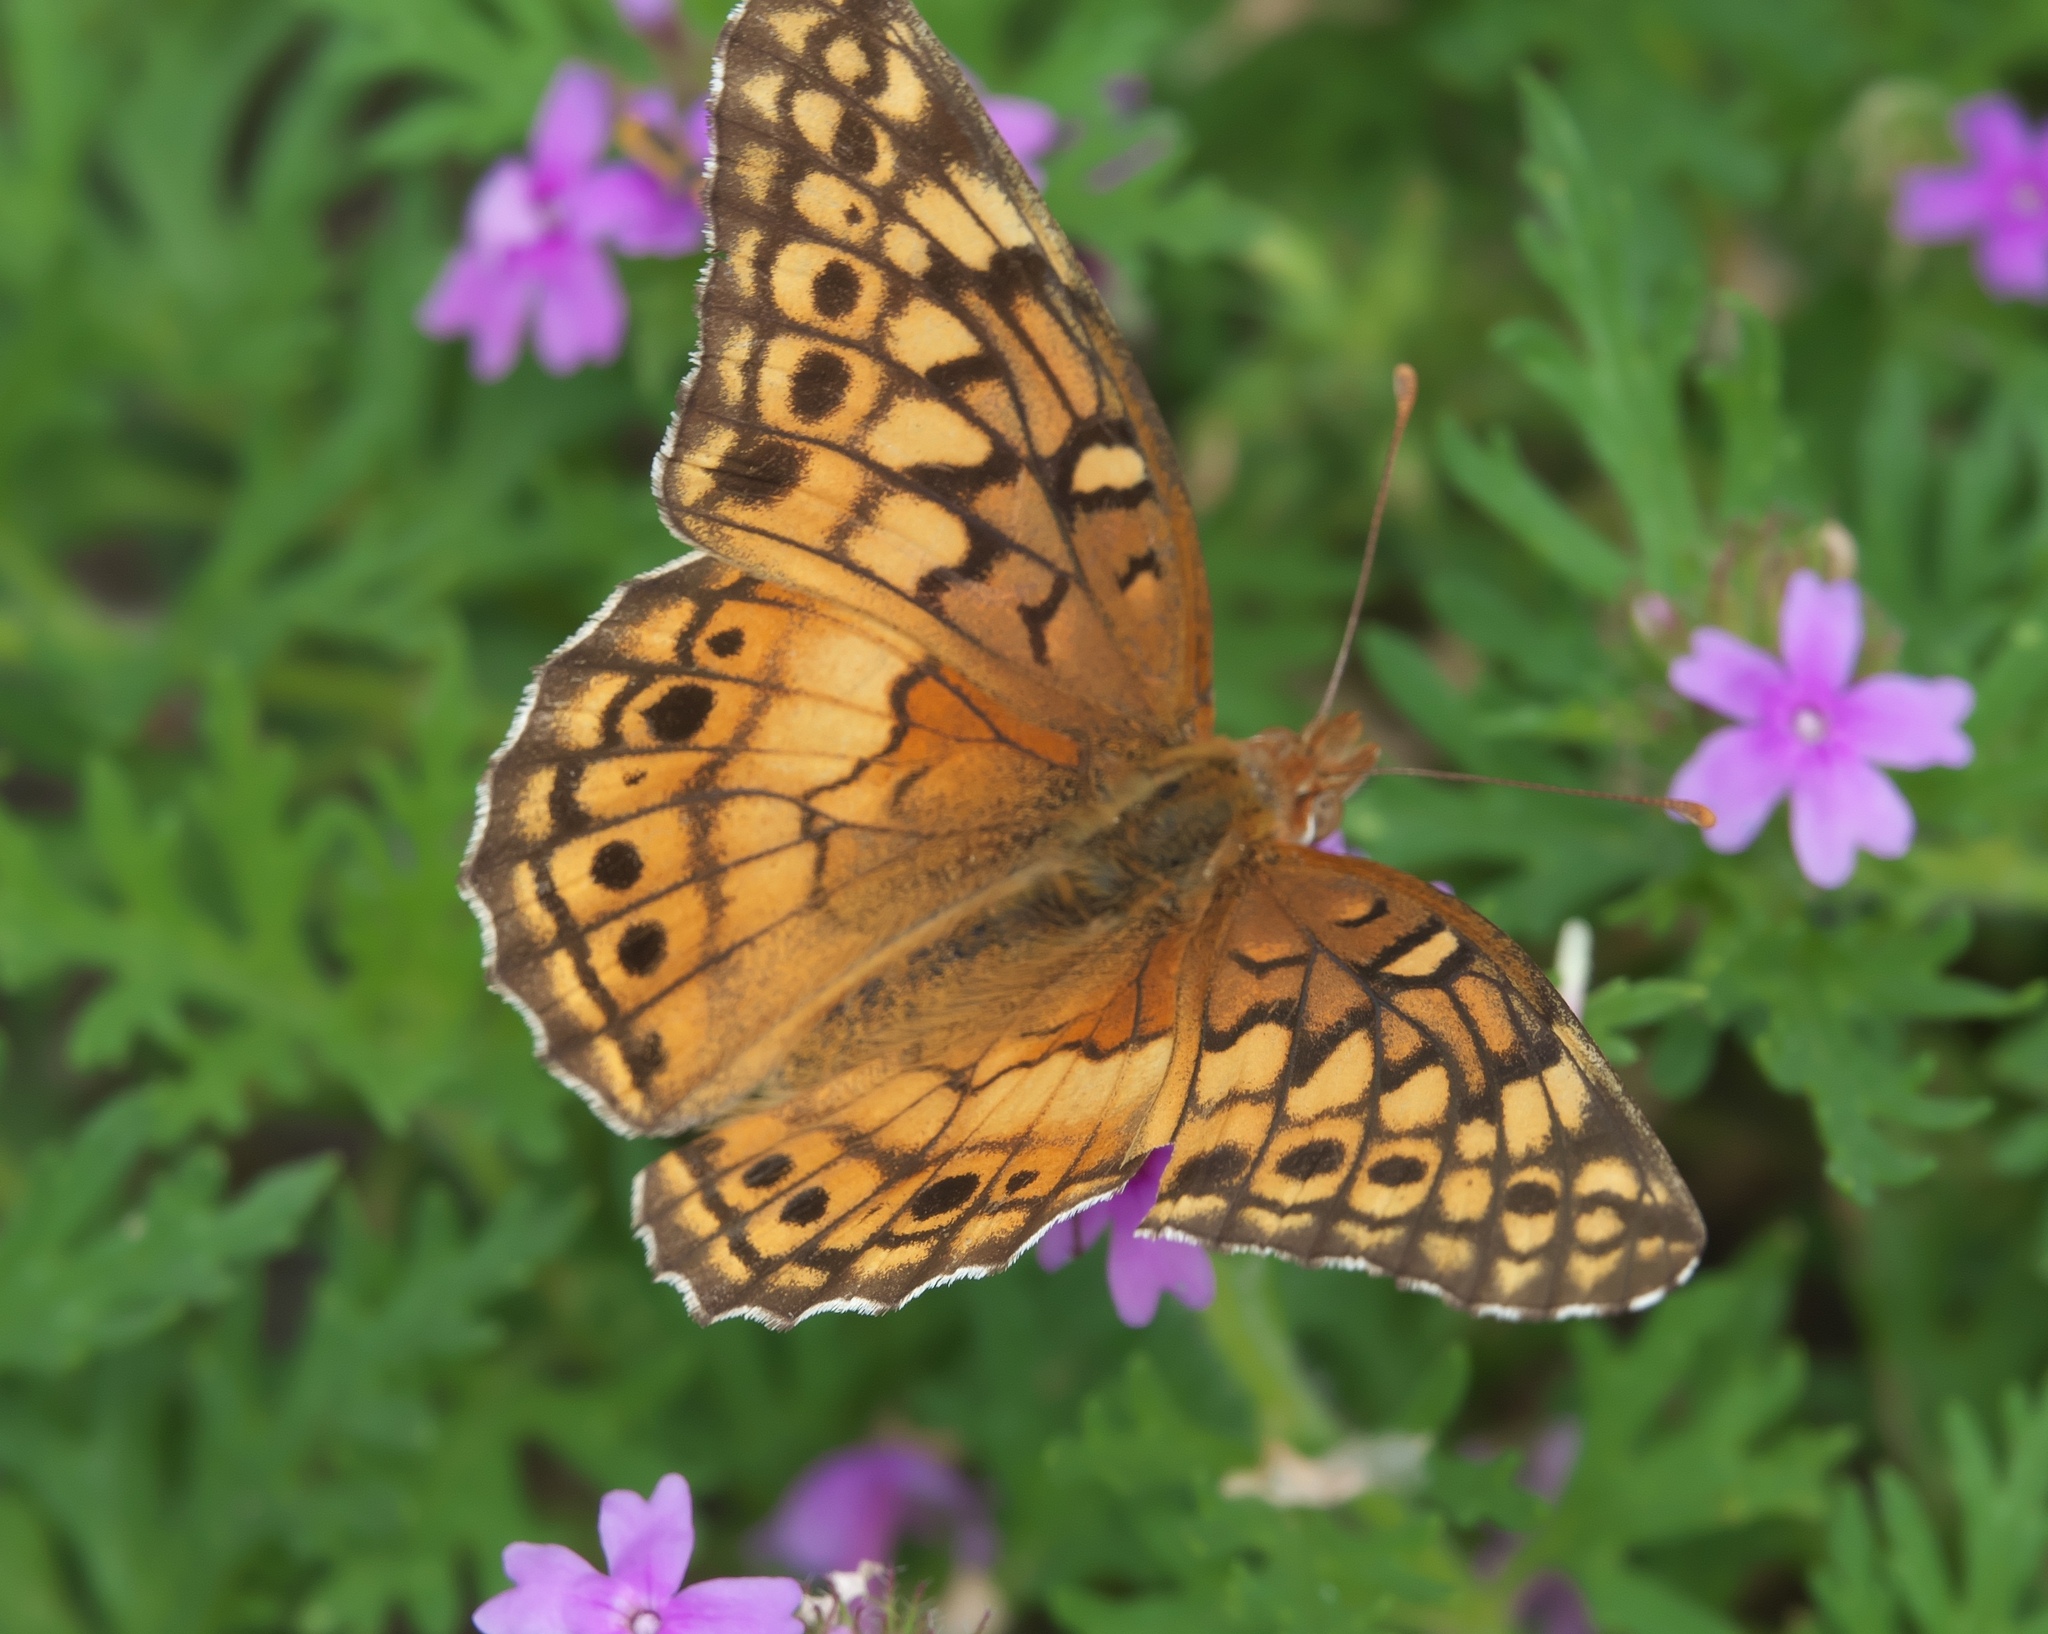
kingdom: Animalia
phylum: Arthropoda
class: Insecta
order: Lepidoptera
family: Nymphalidae
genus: Euptoieta
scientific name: Euptoieta claudia
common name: Variegated fritillary
